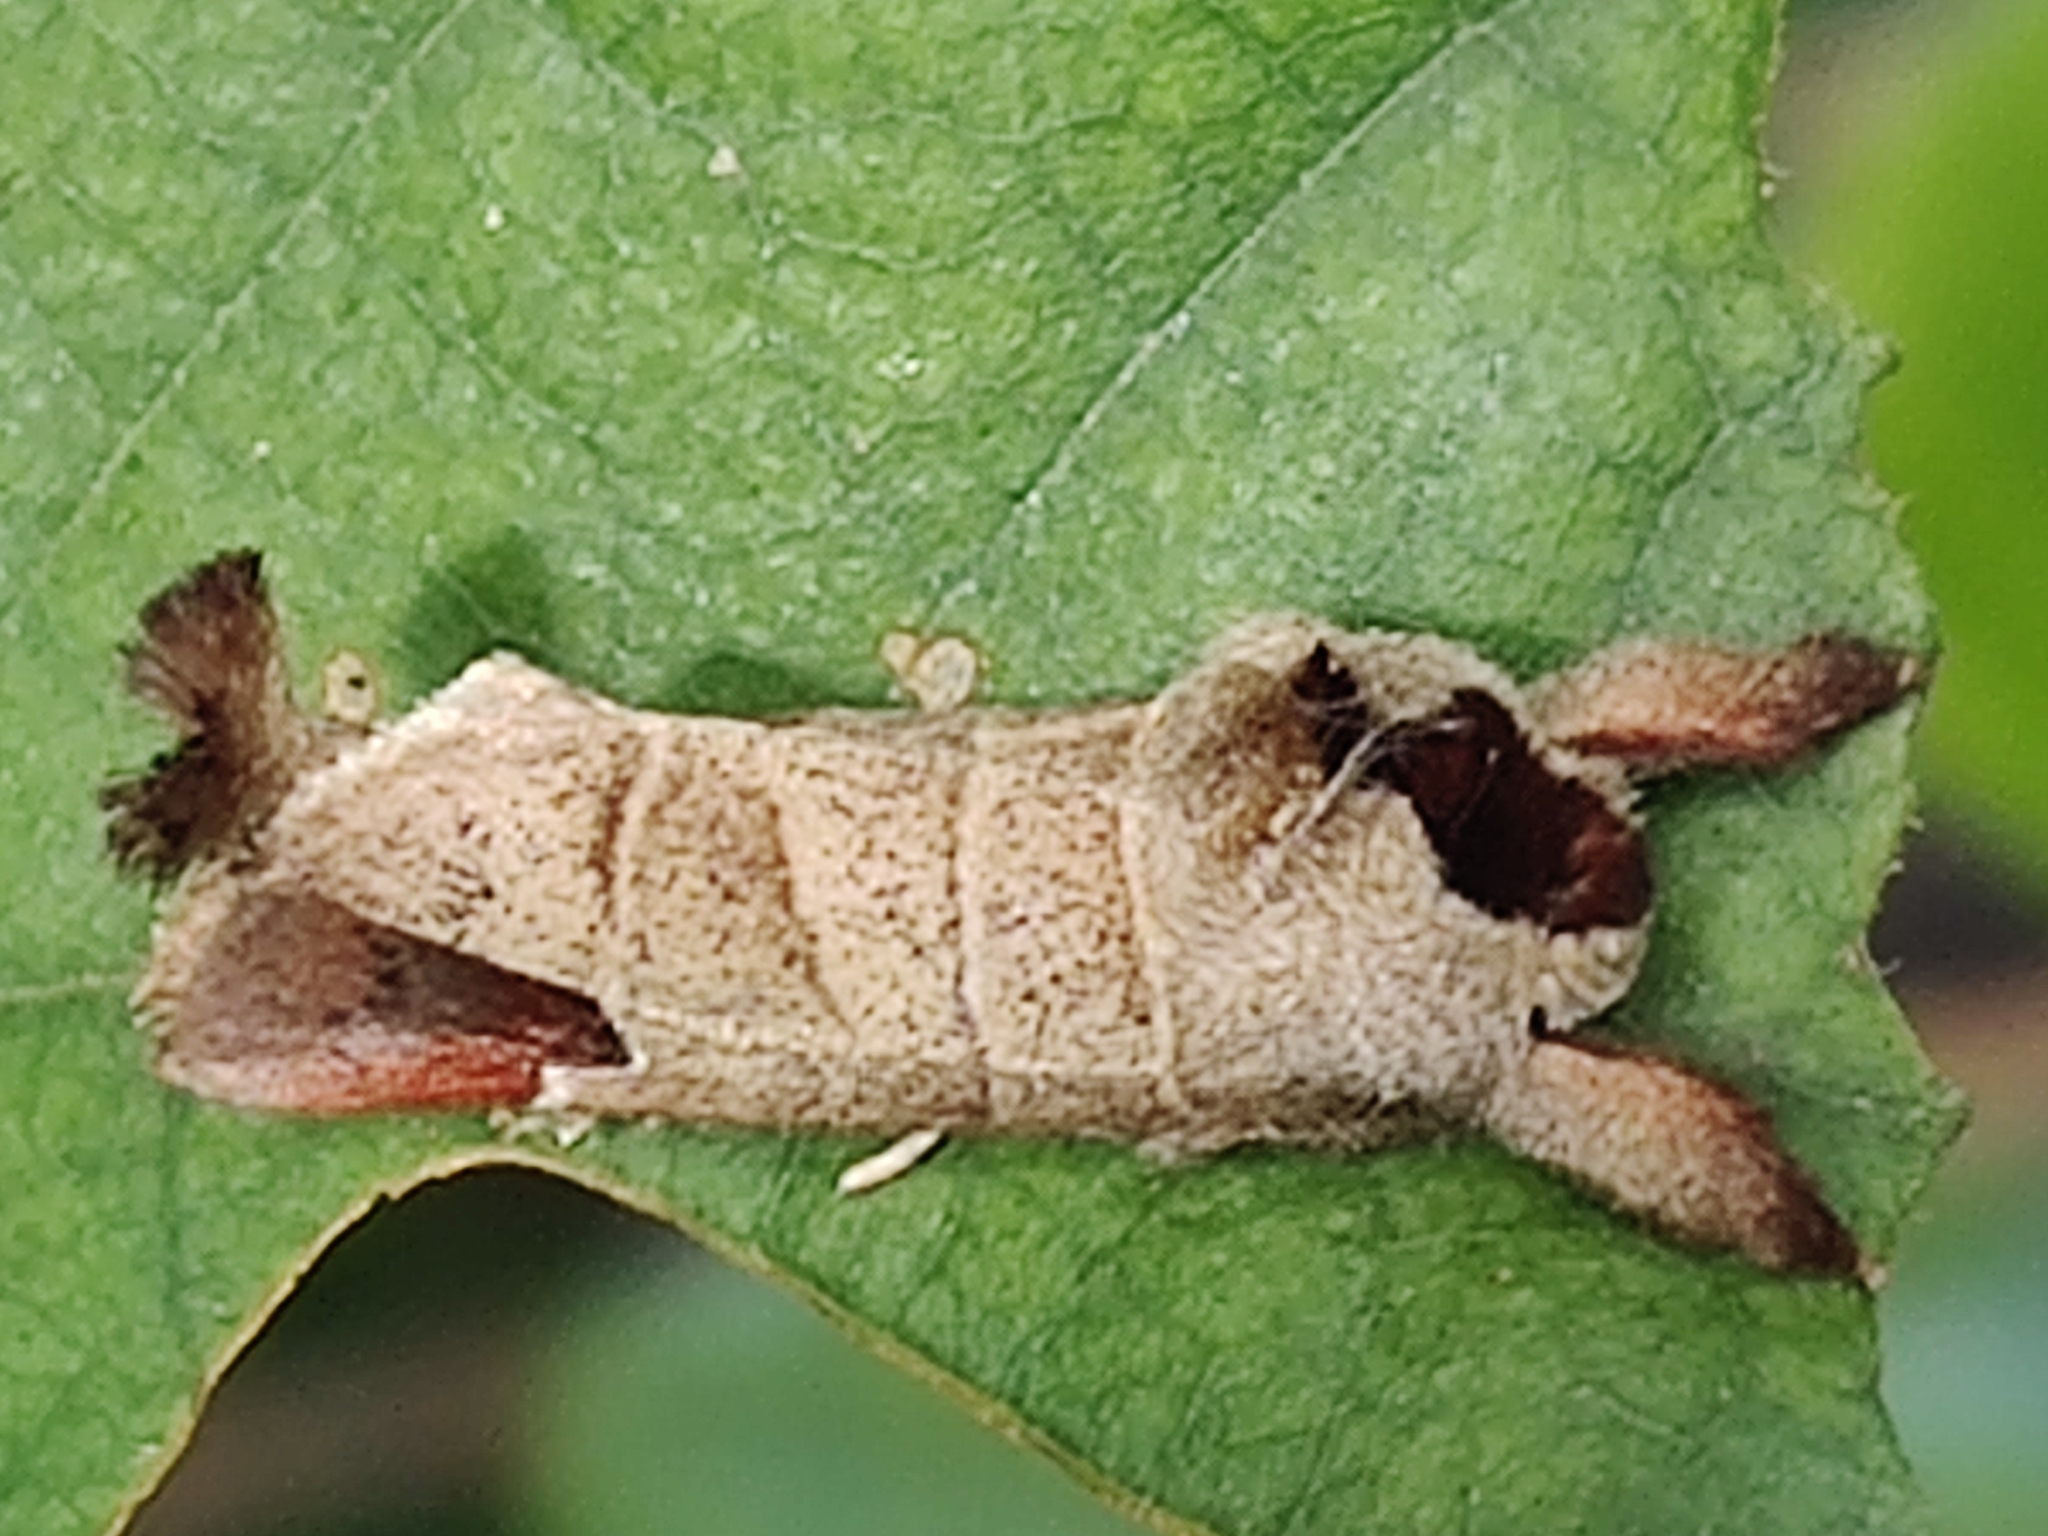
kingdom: Animalia
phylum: Arthropoda
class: Insecta
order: Lepidoptera
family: Notodontidae
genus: Clostera
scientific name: Clostera curtula
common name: Chocolate-tip
